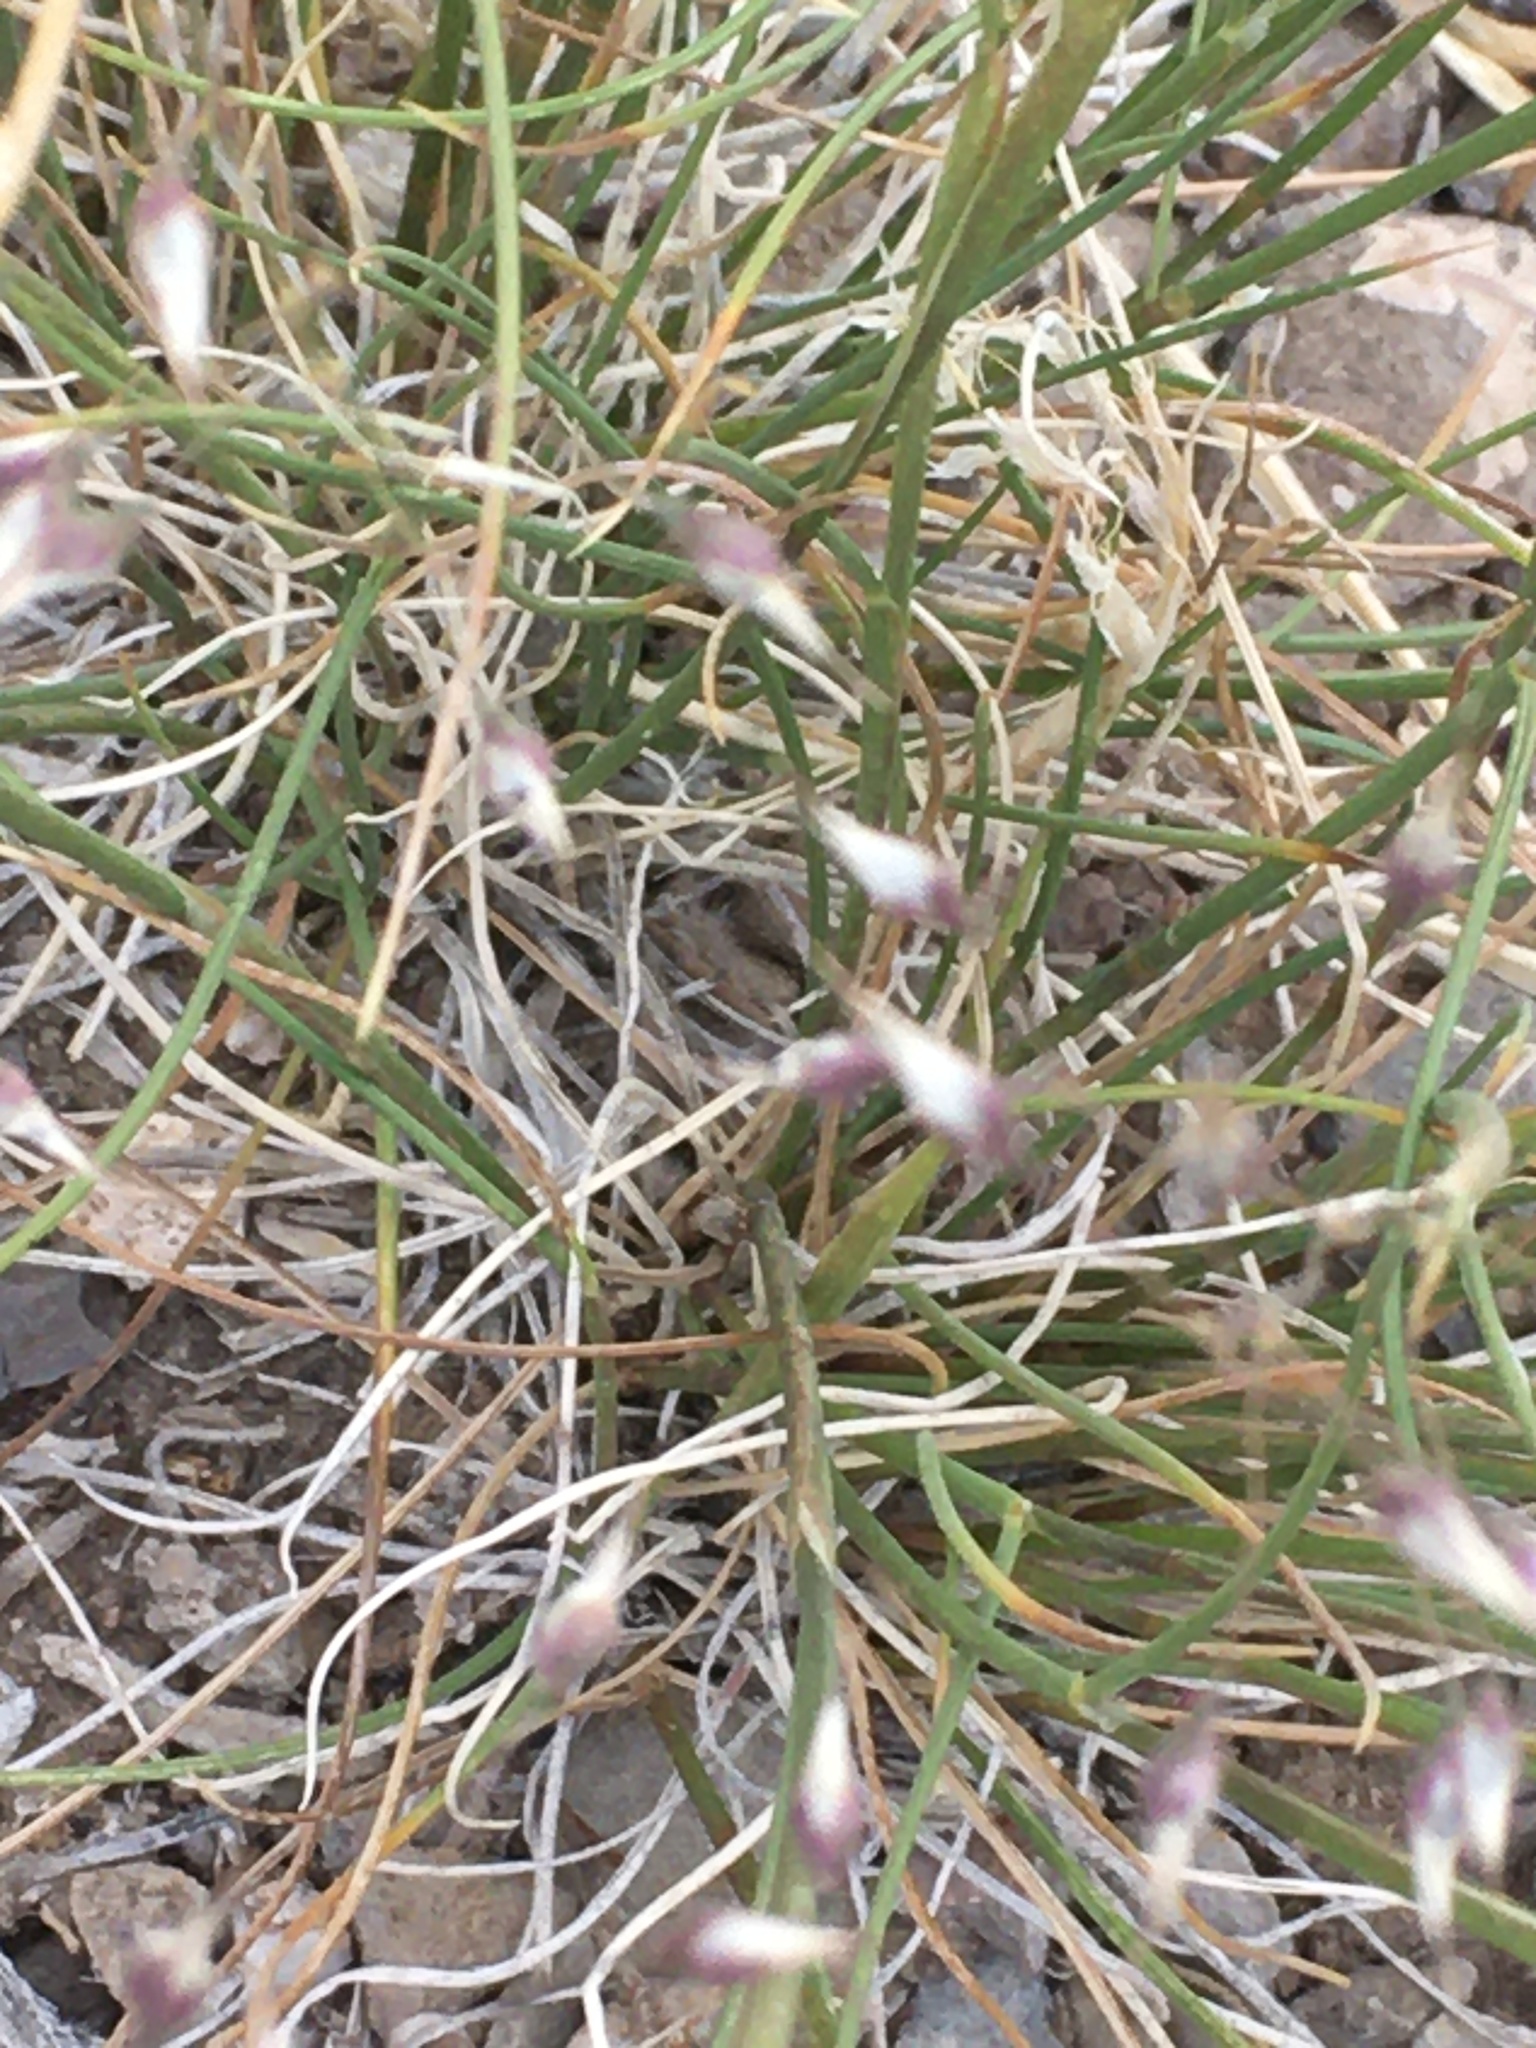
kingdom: Plantae
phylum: Tracheophyta
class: Liliopsida
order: Poales
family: Poaceae
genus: Eriocoma
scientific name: Eriocoma hymenoides
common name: Indian mountain ricegrass
